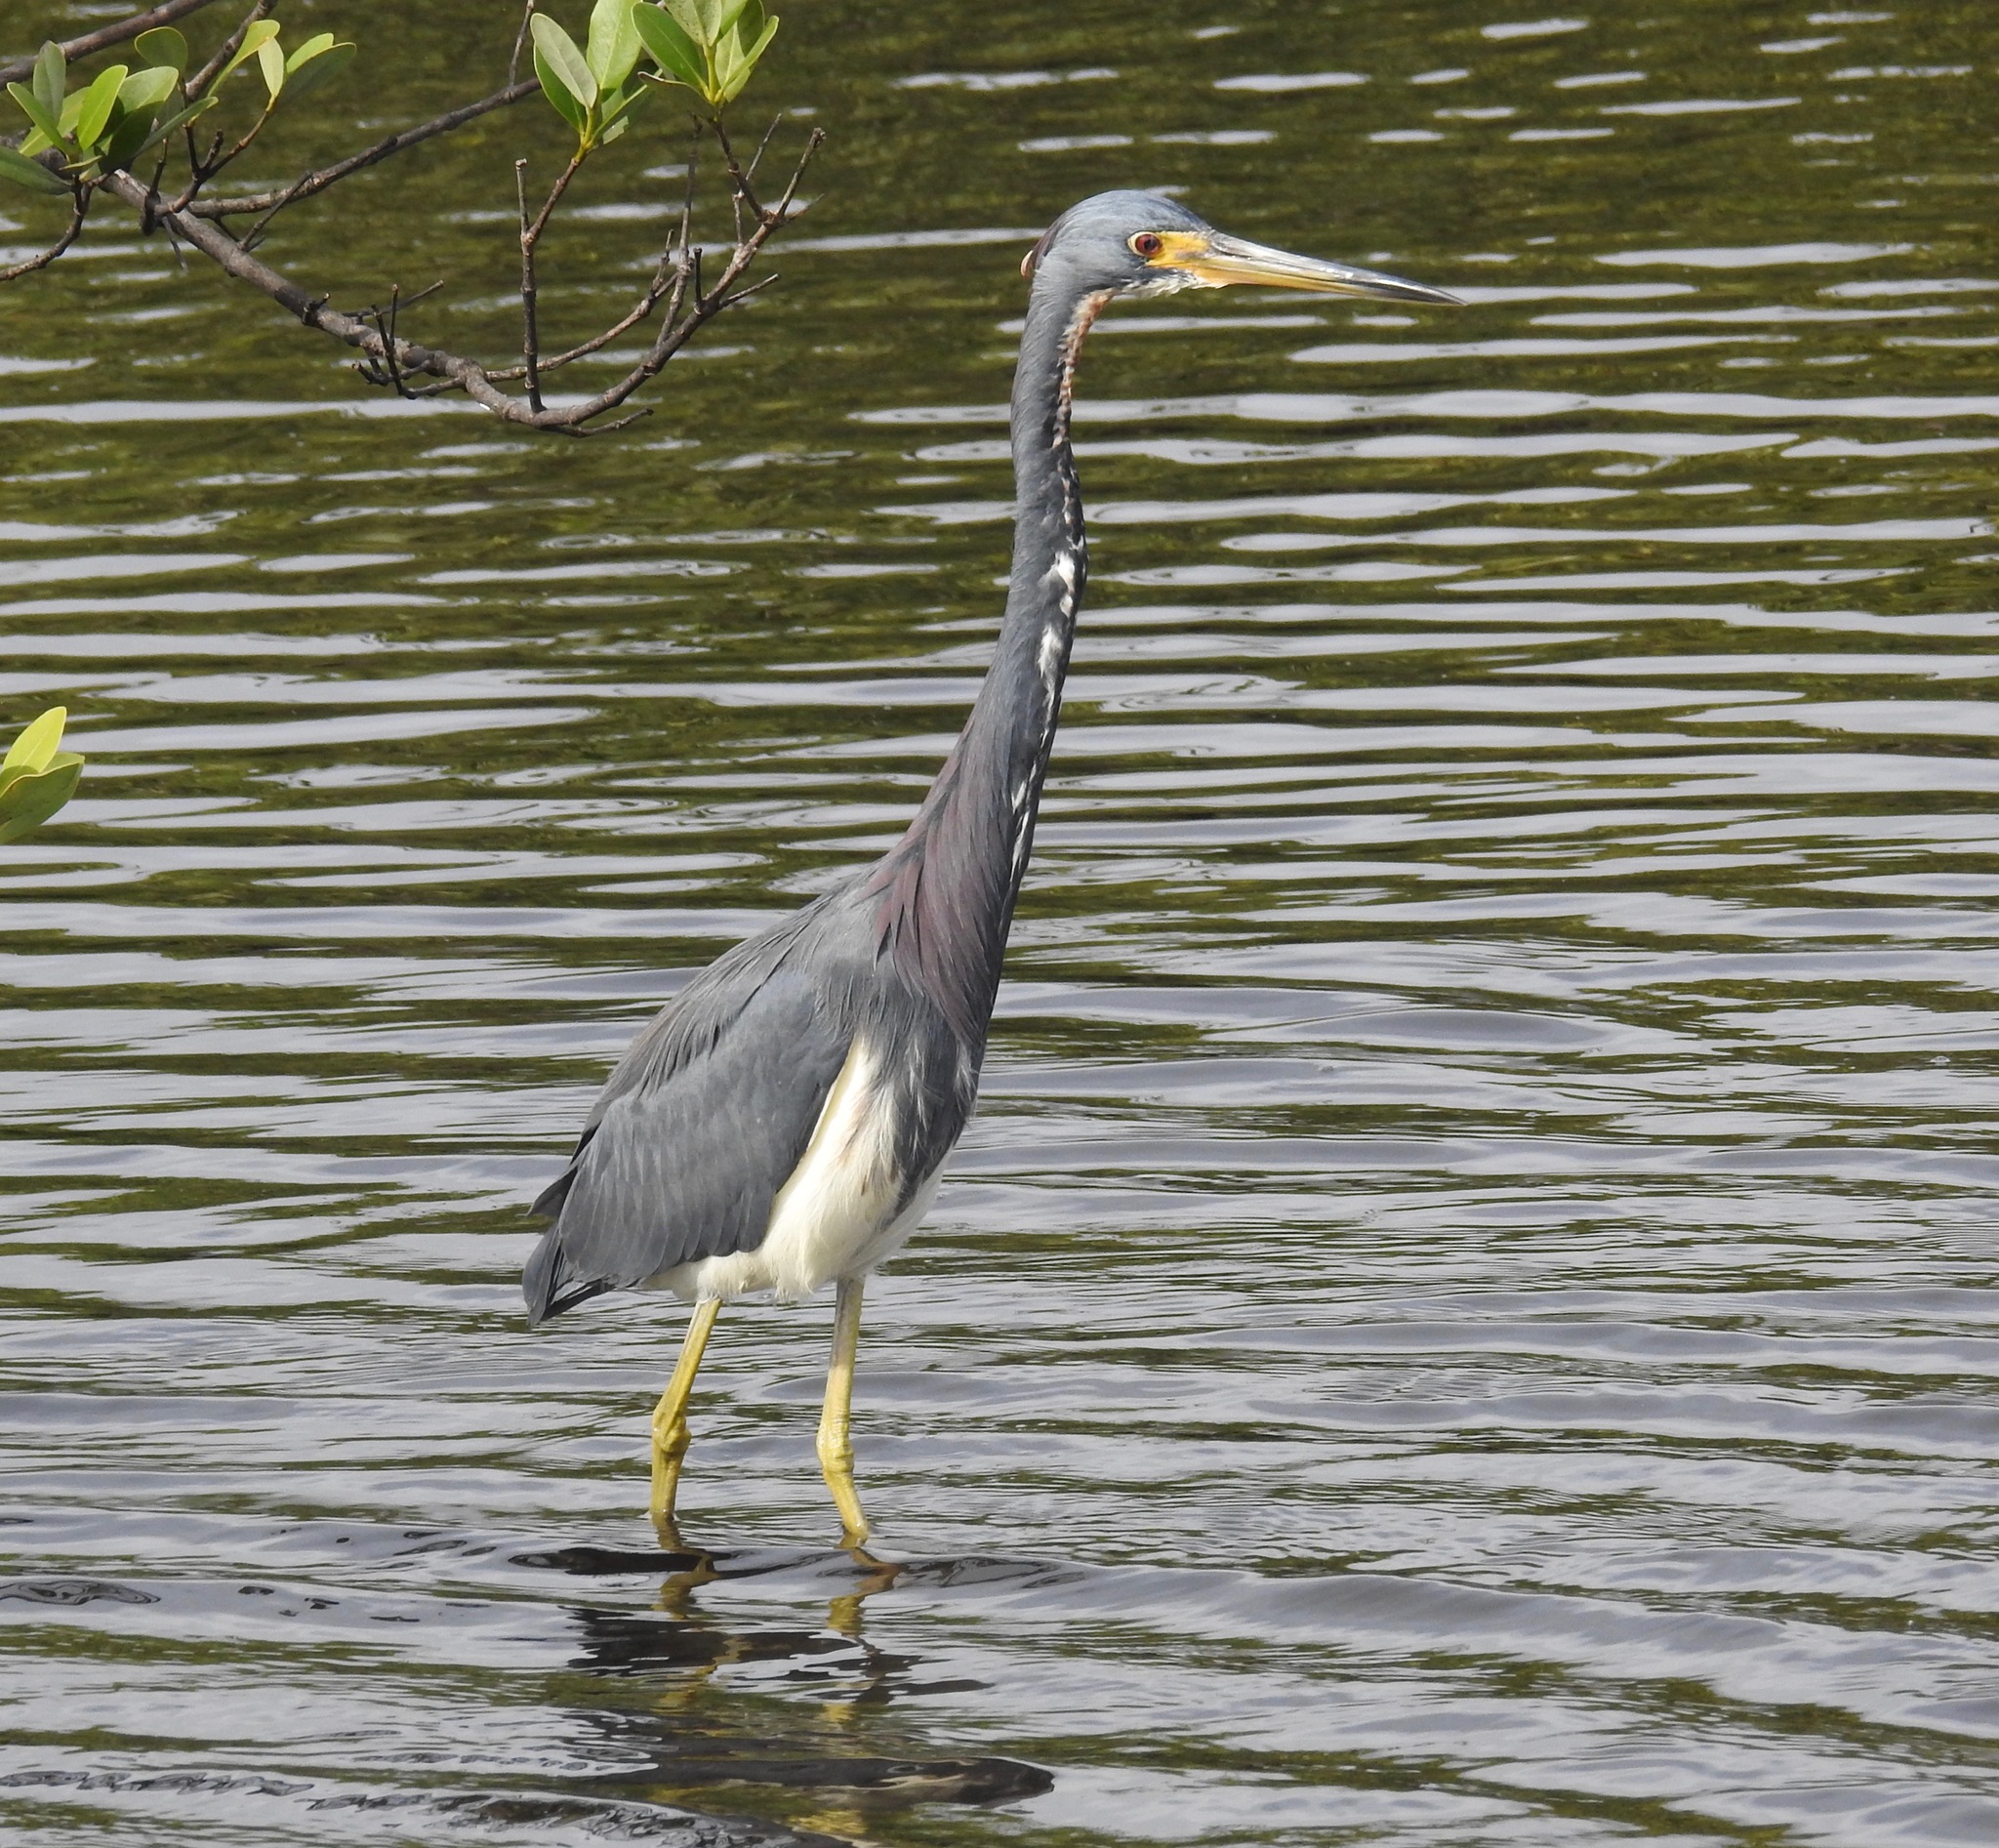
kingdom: Animalia
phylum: Chordata
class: Aves
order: Pelecaniformes
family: Ardeidae
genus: Egretta
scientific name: Egretta tricolor
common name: Tricolored heron
